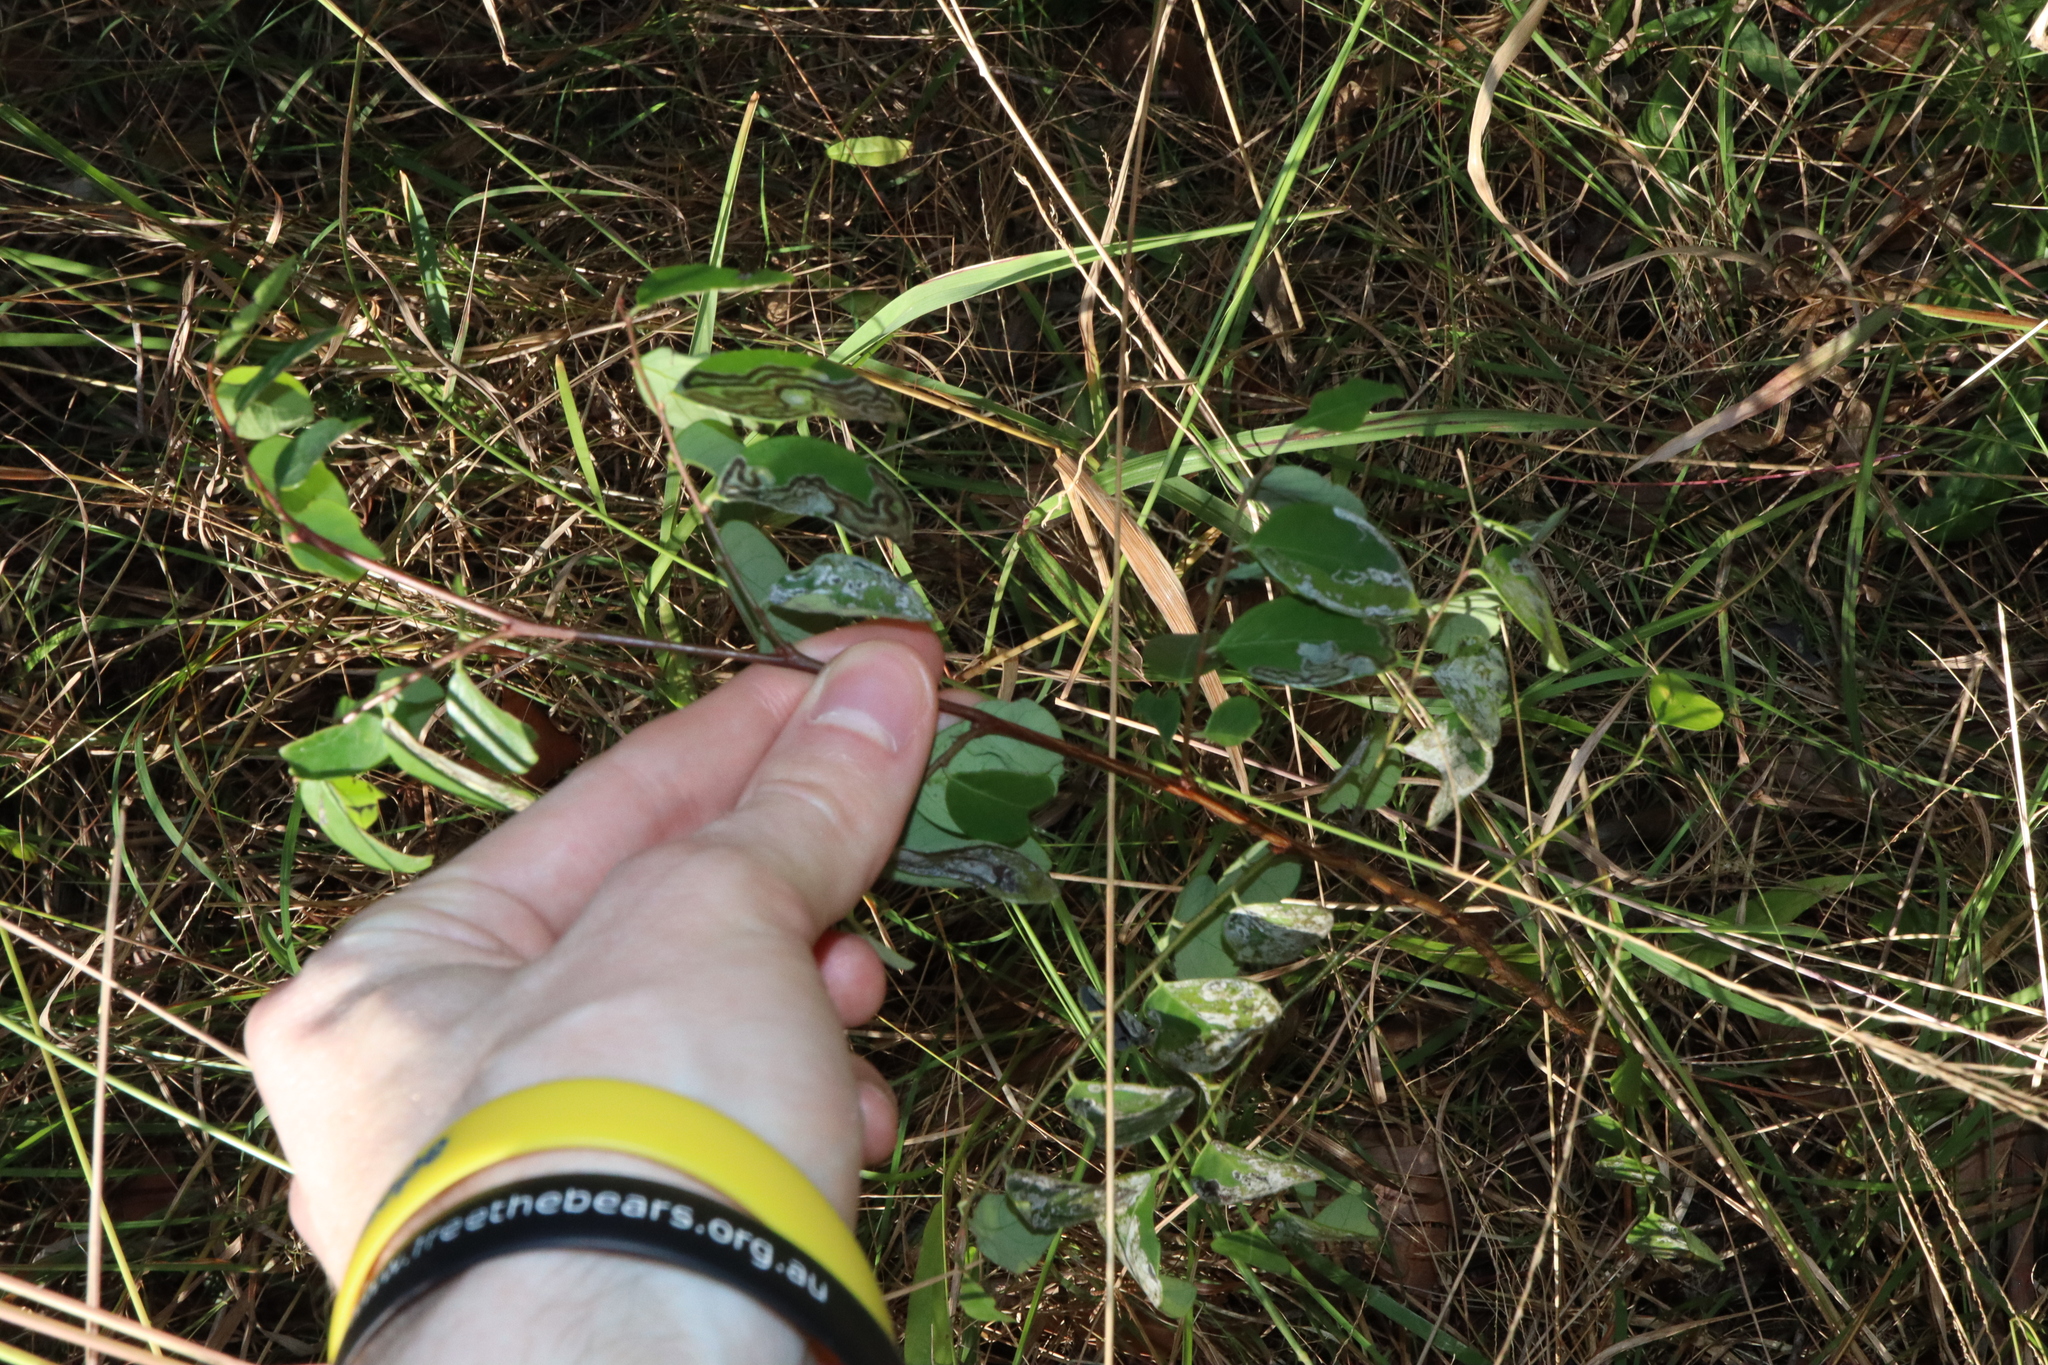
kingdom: Plantae
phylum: Tracheophyta
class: Magnoliopsida
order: Malpighiales
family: Phyllanthaceae
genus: Breynia
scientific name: Breynia oblongifolia
